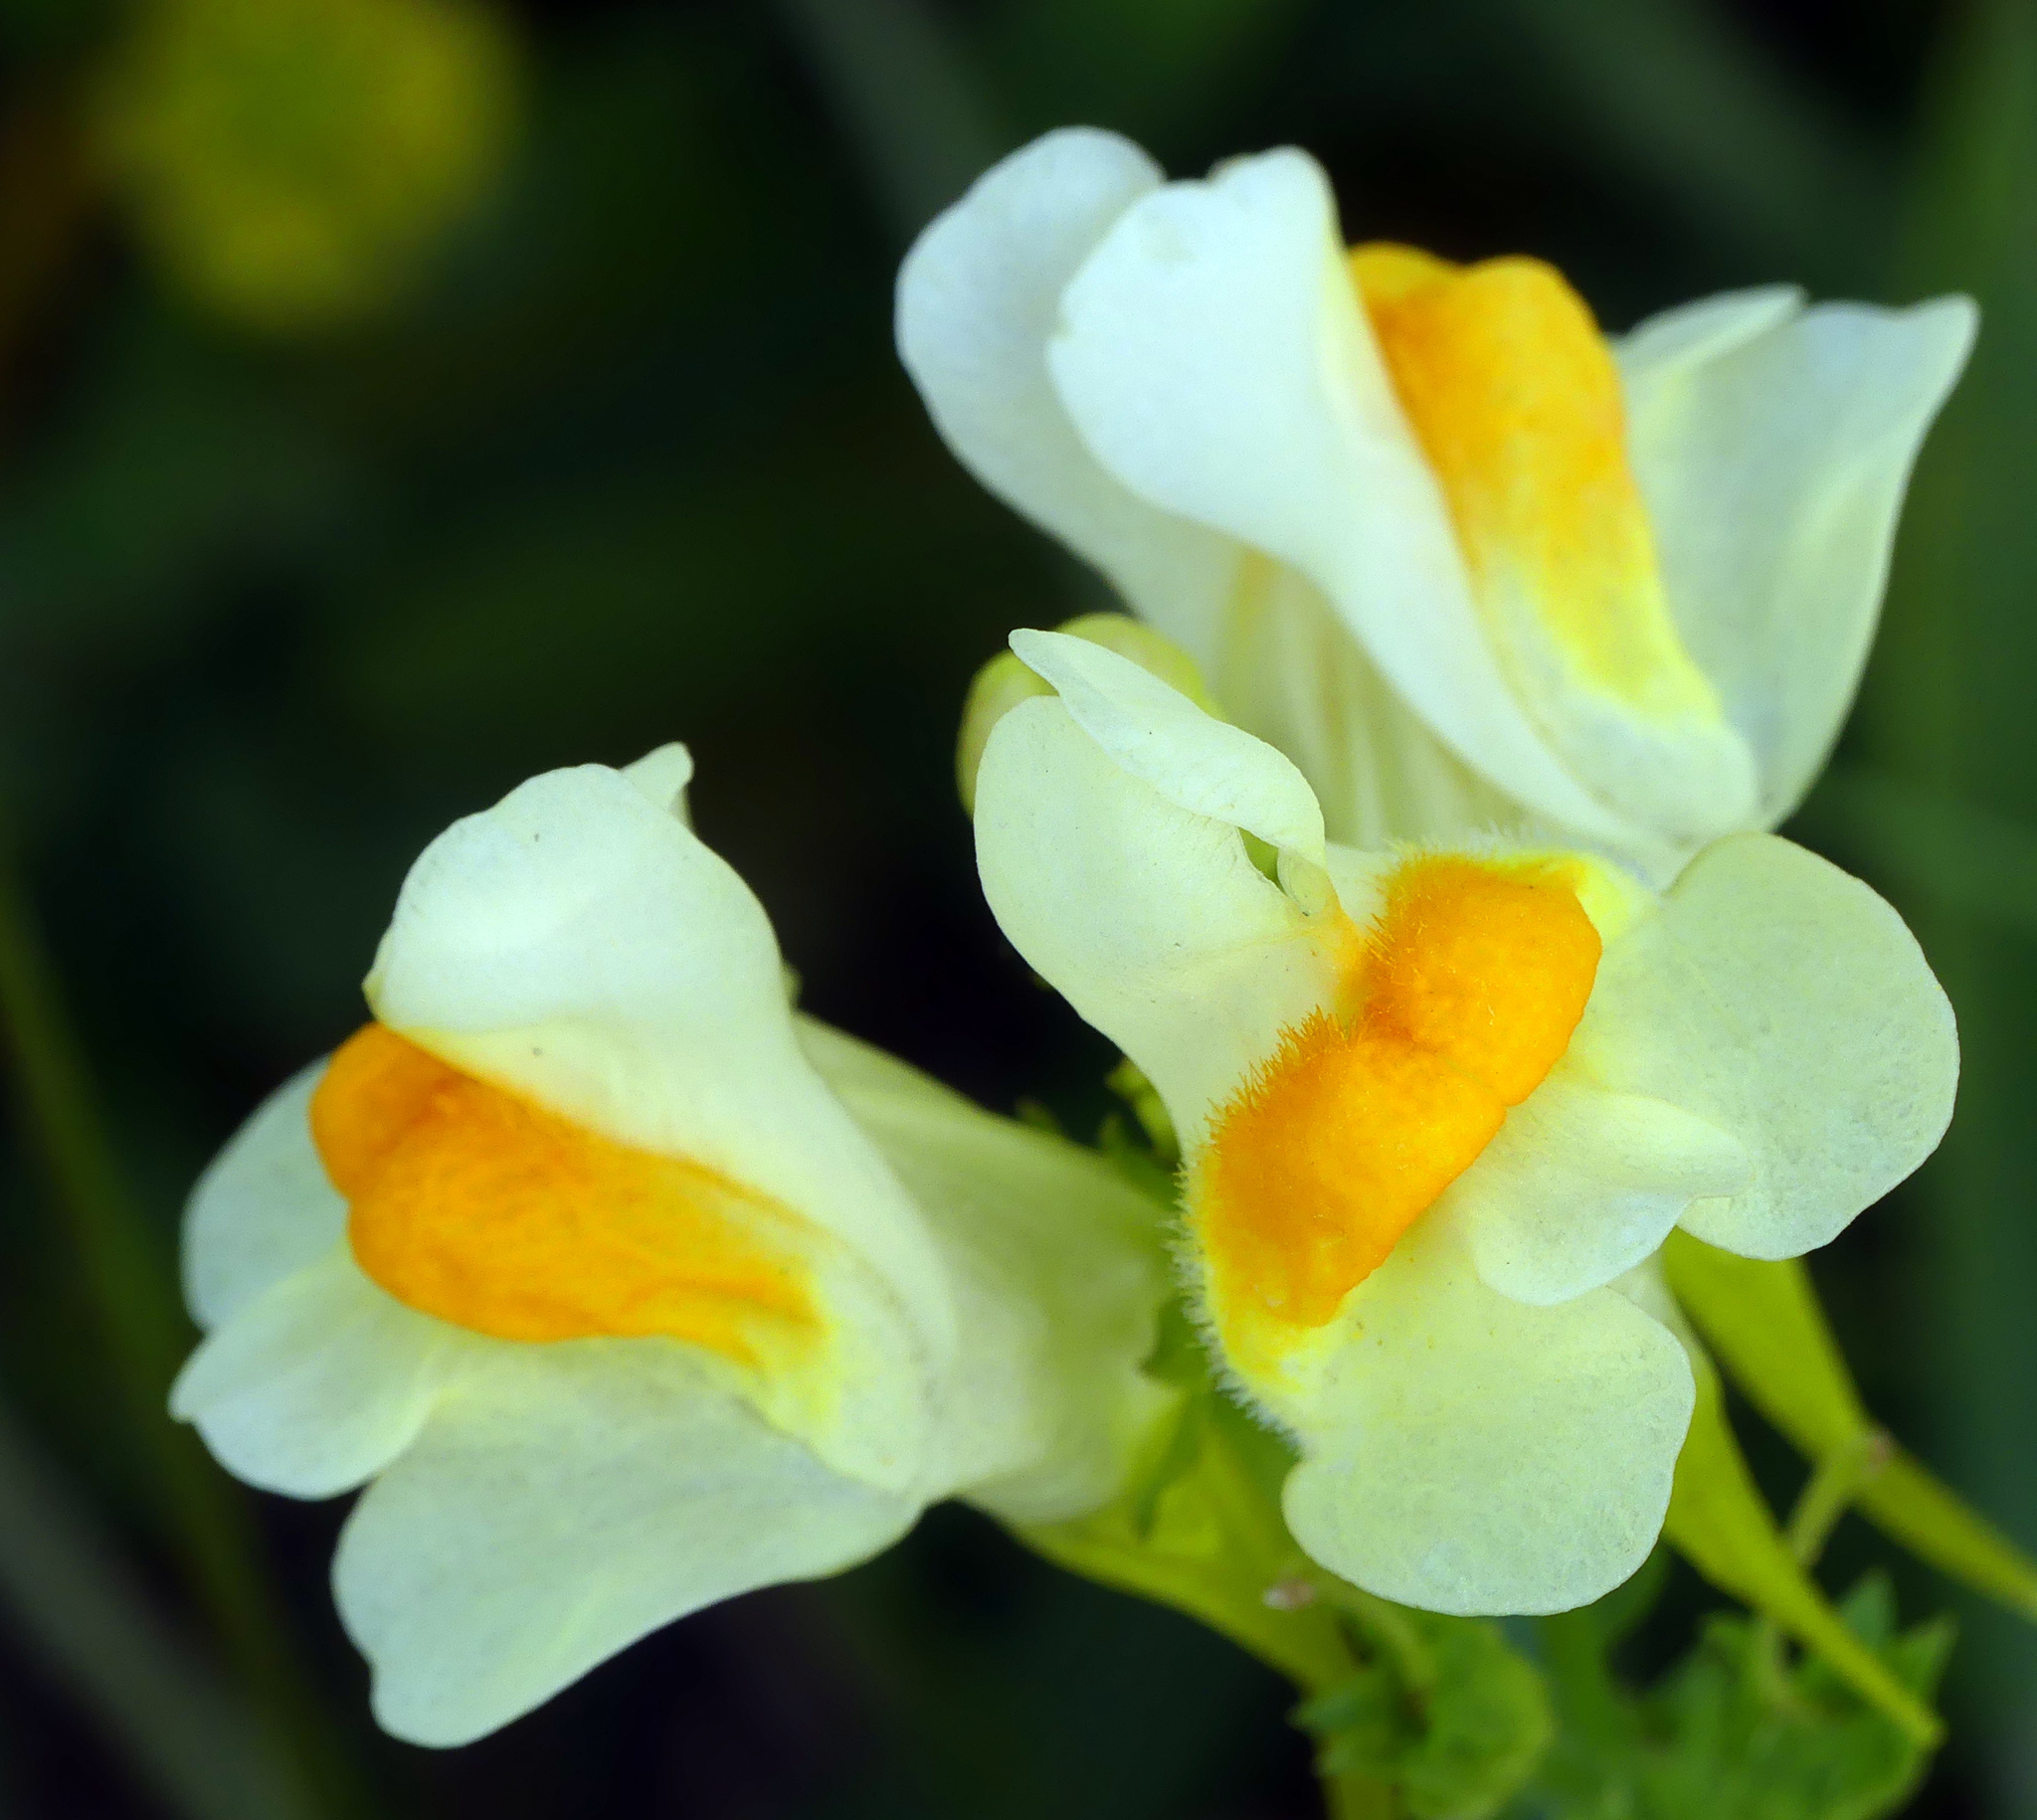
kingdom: Plantae
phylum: Tracheophyta
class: Magnoliopsida
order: Lamiales
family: Plantaginaceae
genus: Linaria
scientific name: Linaria vulgaris
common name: Butter and eggs
